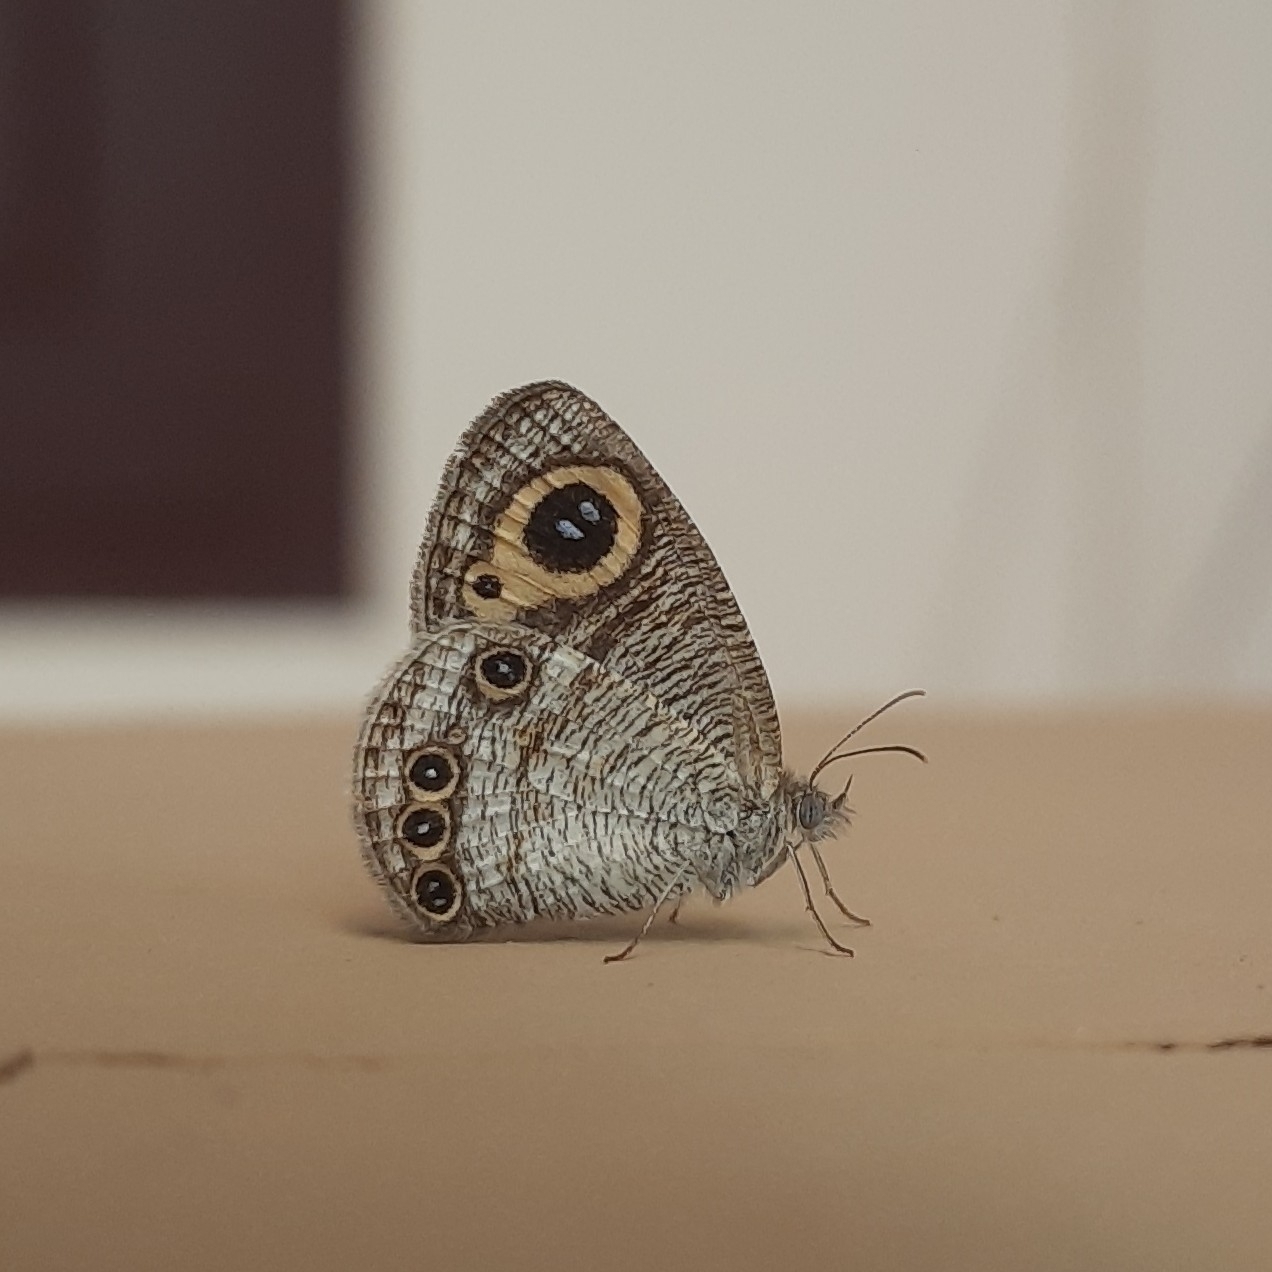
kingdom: Animalia
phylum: Arthropoda
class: Insecta
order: Lepidoptera
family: Nymphalidae
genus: Ypthima
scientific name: Ypthima huebneri
